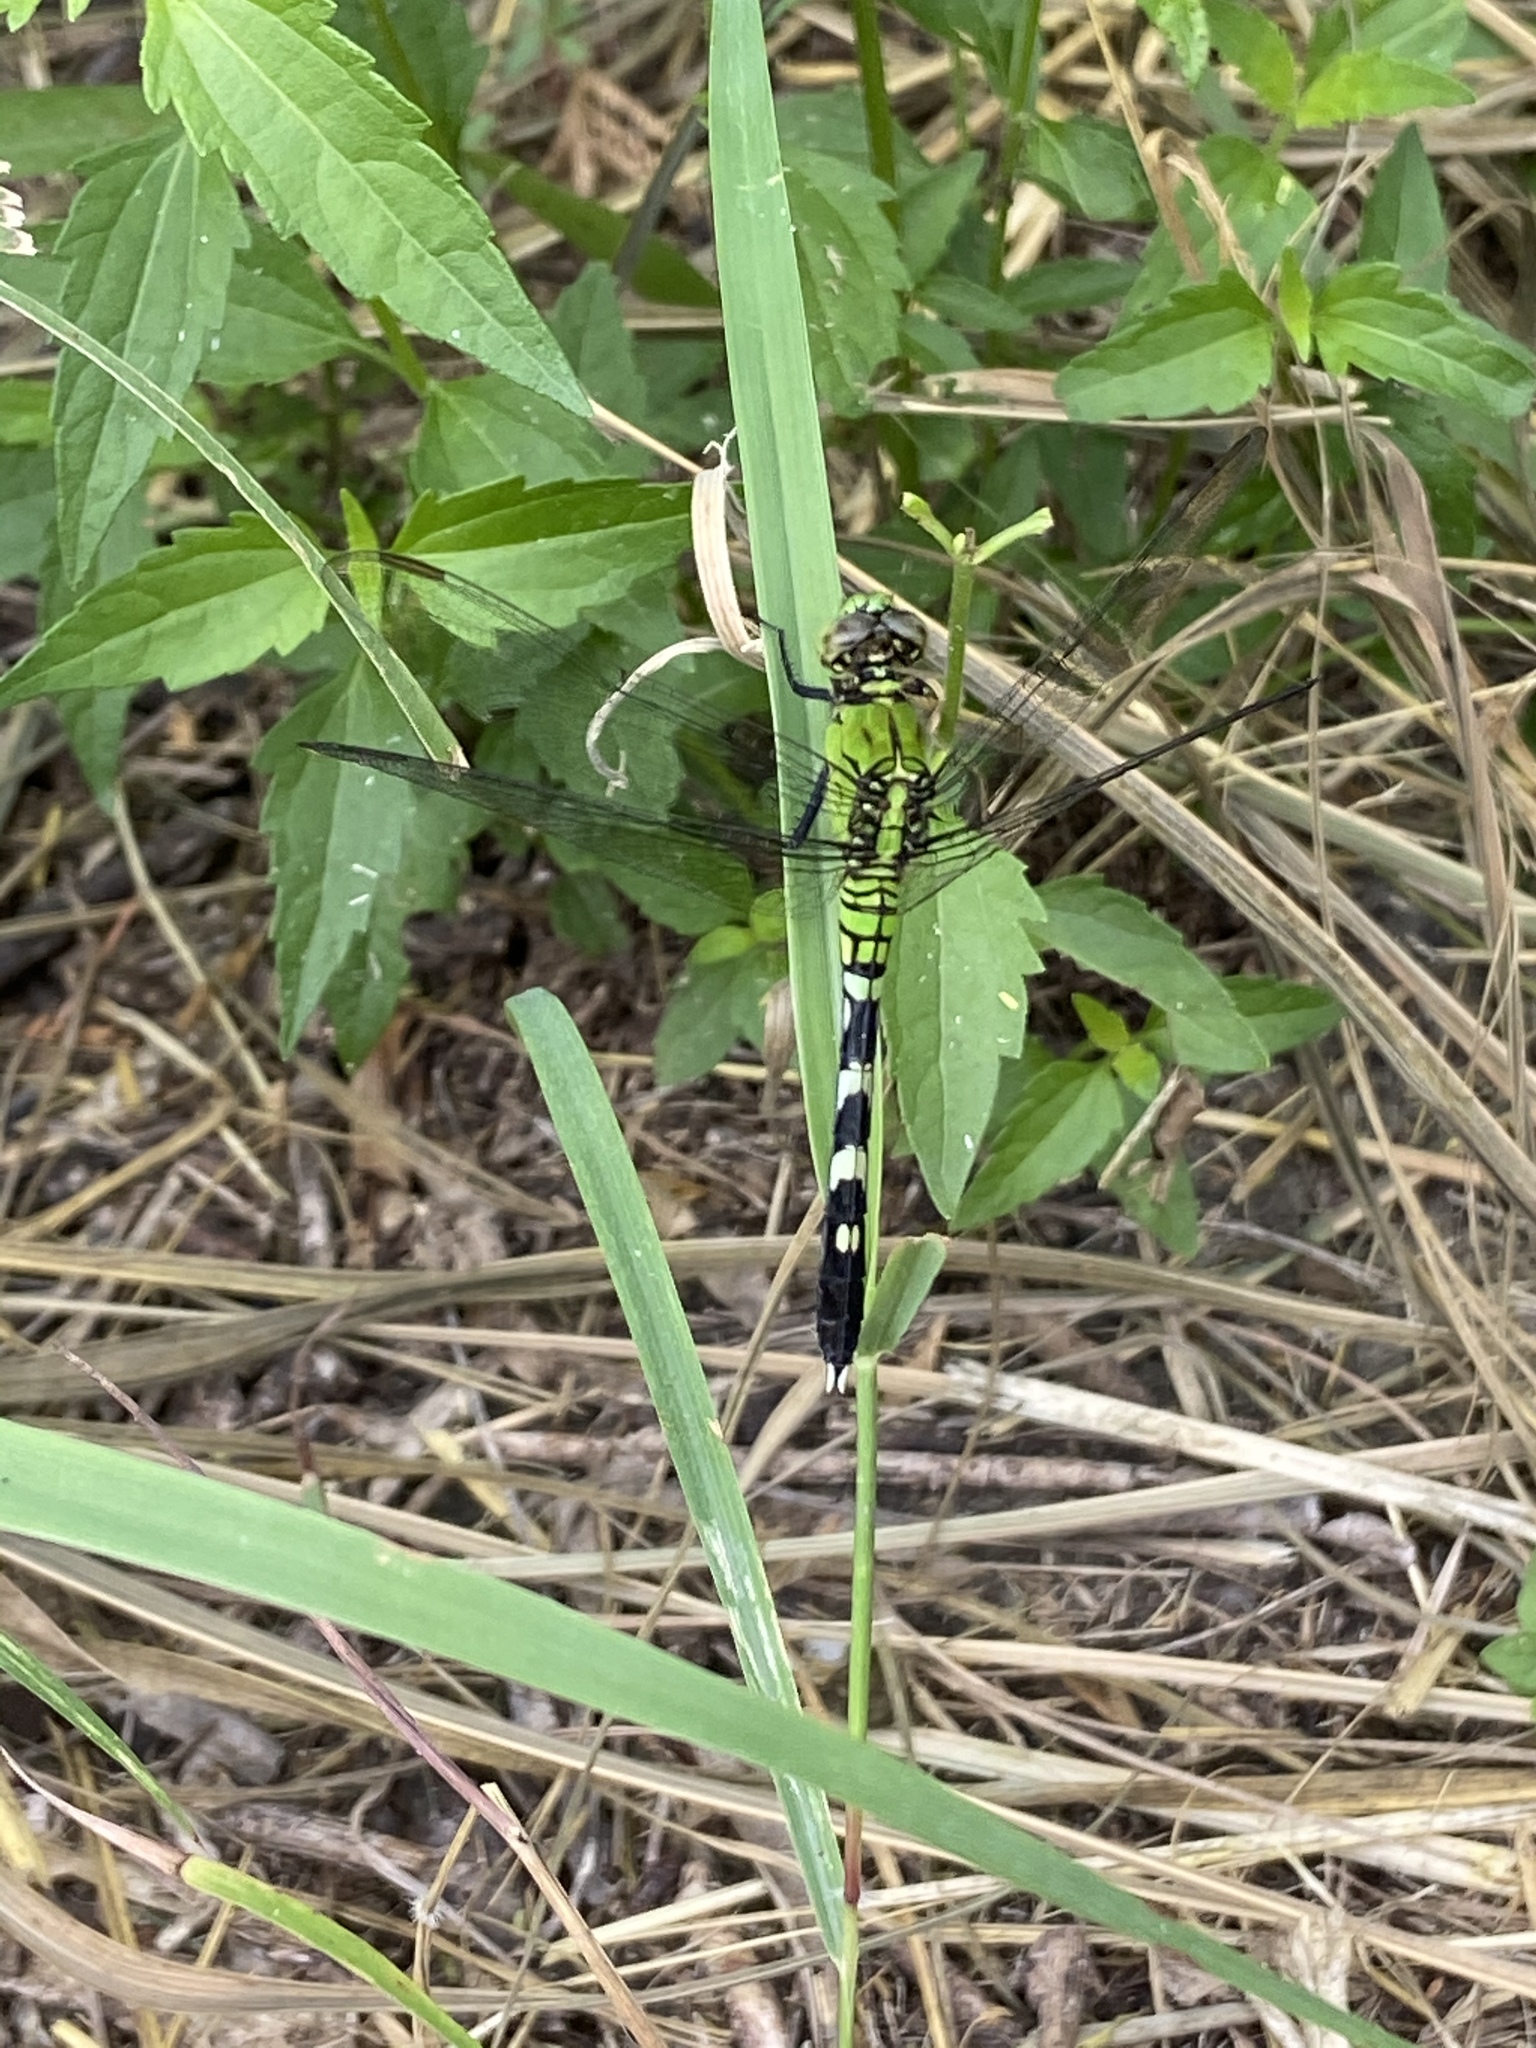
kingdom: Animalia
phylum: Arthropoda
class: Insecta
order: Odonata
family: Libellulidae
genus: Erythemis
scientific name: Erythemis simplicicollis
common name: Eastern pondhawk
